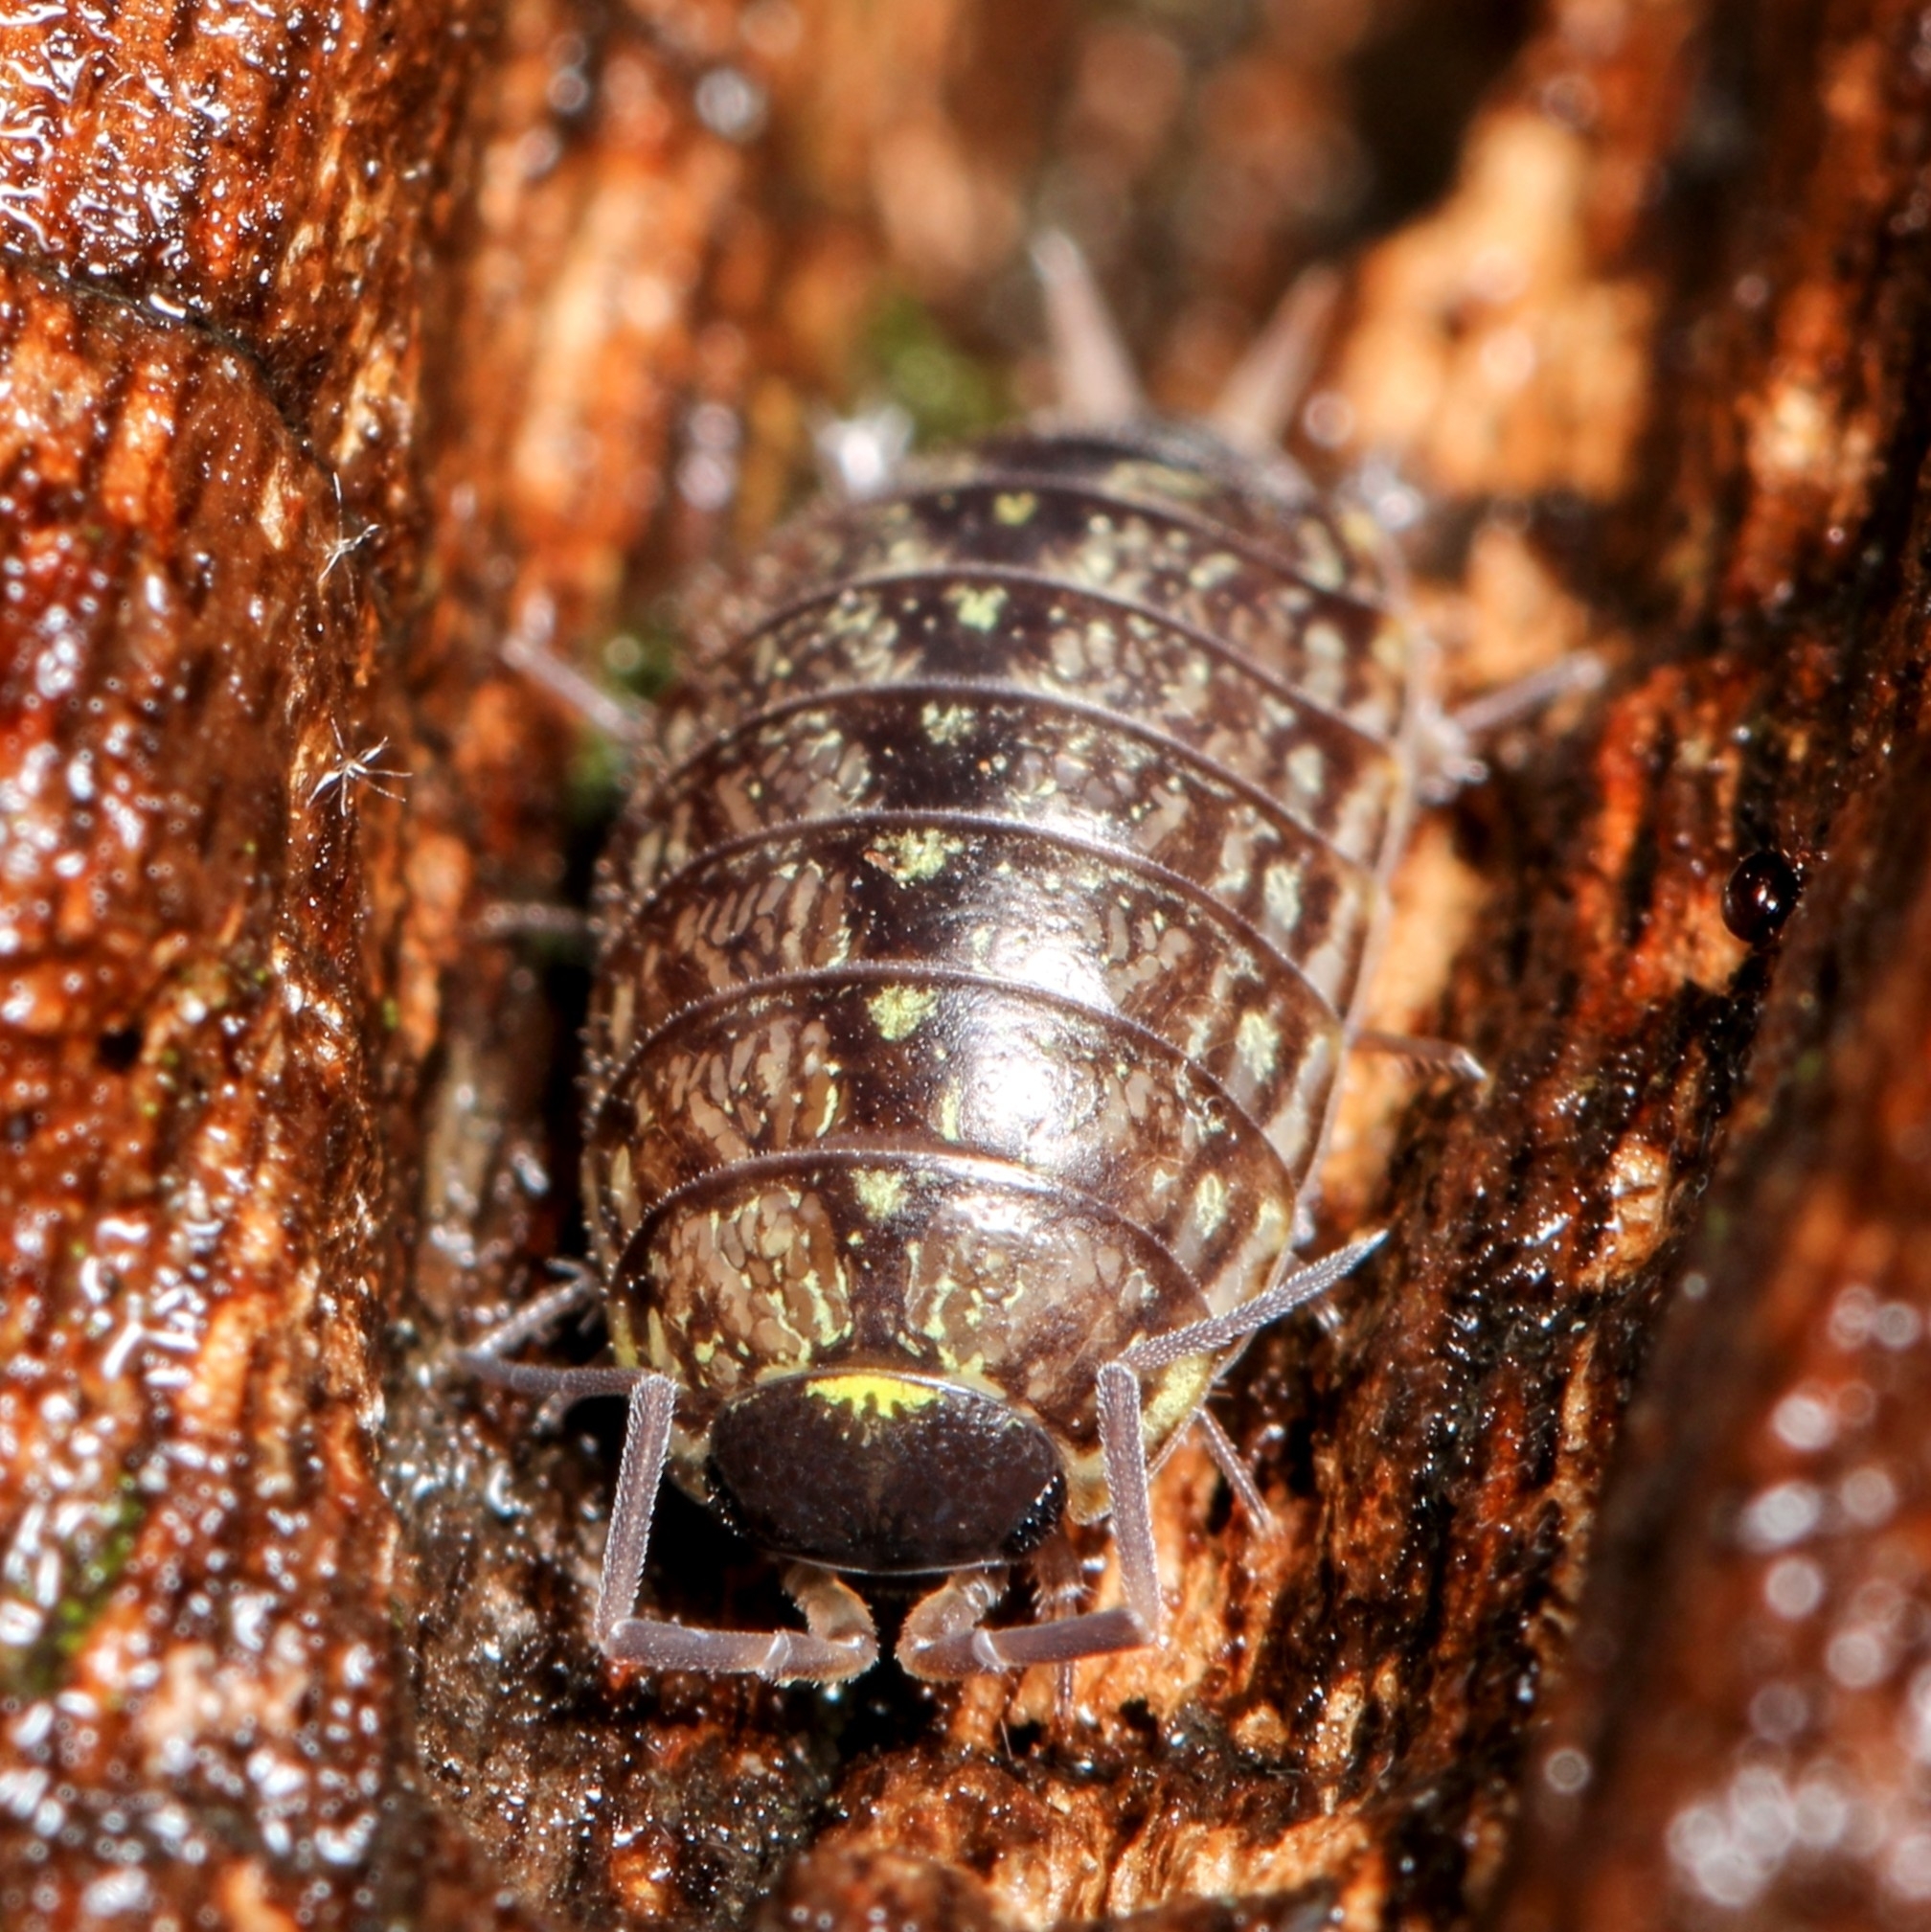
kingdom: Animalia
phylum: Arthropoda
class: Malacostraca
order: Isopoda
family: Philosciidae
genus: Philoscia
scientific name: Philoscia muscorum
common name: Common striped woodlouse
